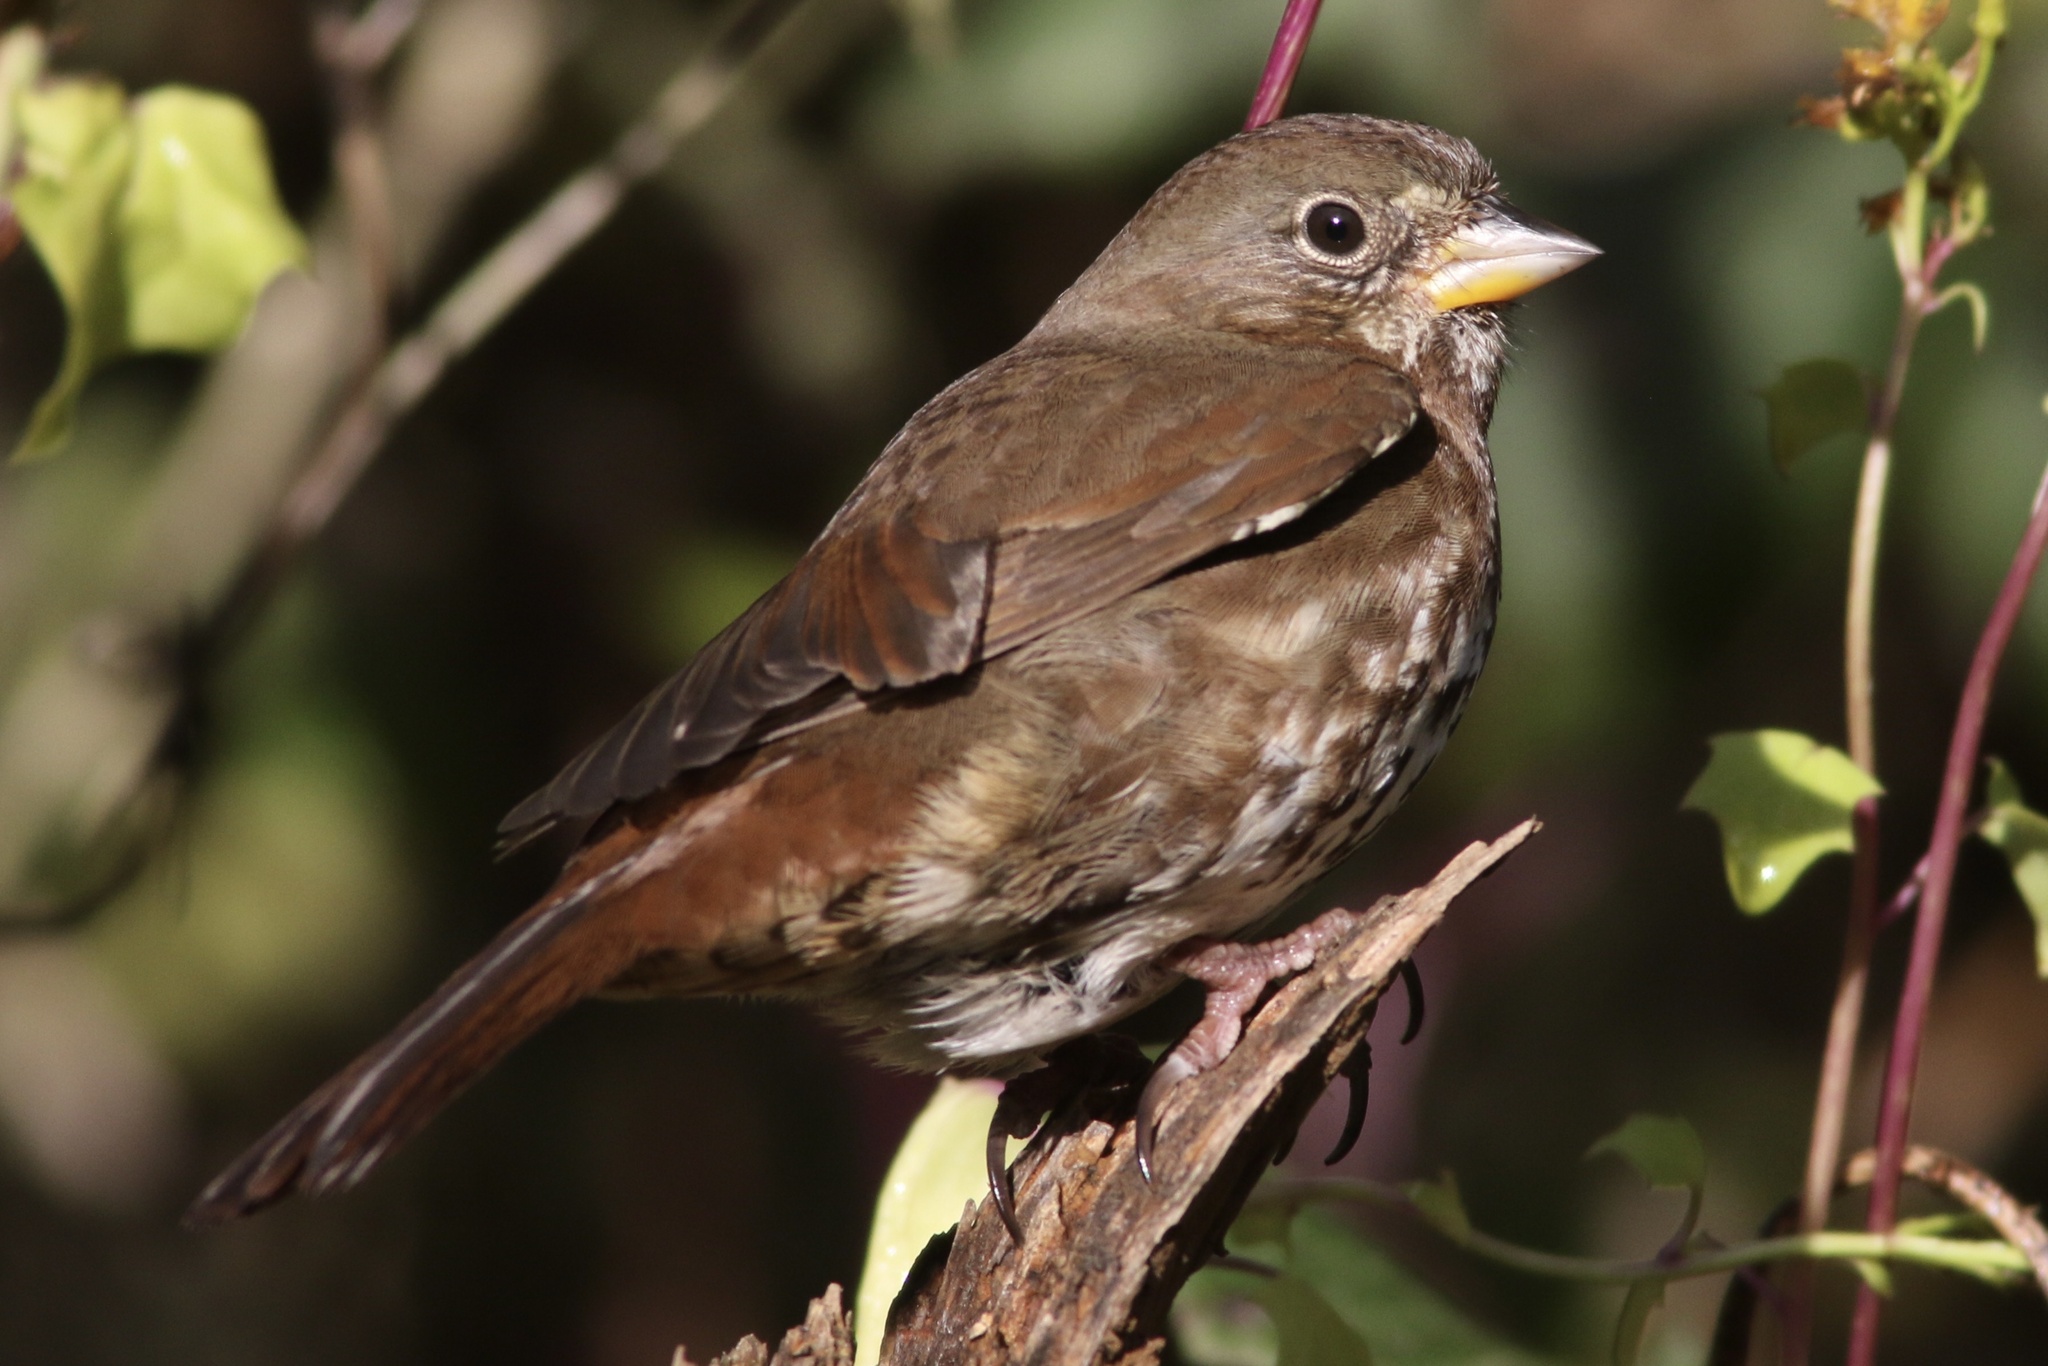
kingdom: Animalia
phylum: Chordata
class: Aves
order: Passeriformes
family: Passerellidae
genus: Passerella
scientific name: Passerella iliaca
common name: Fox sparrow
